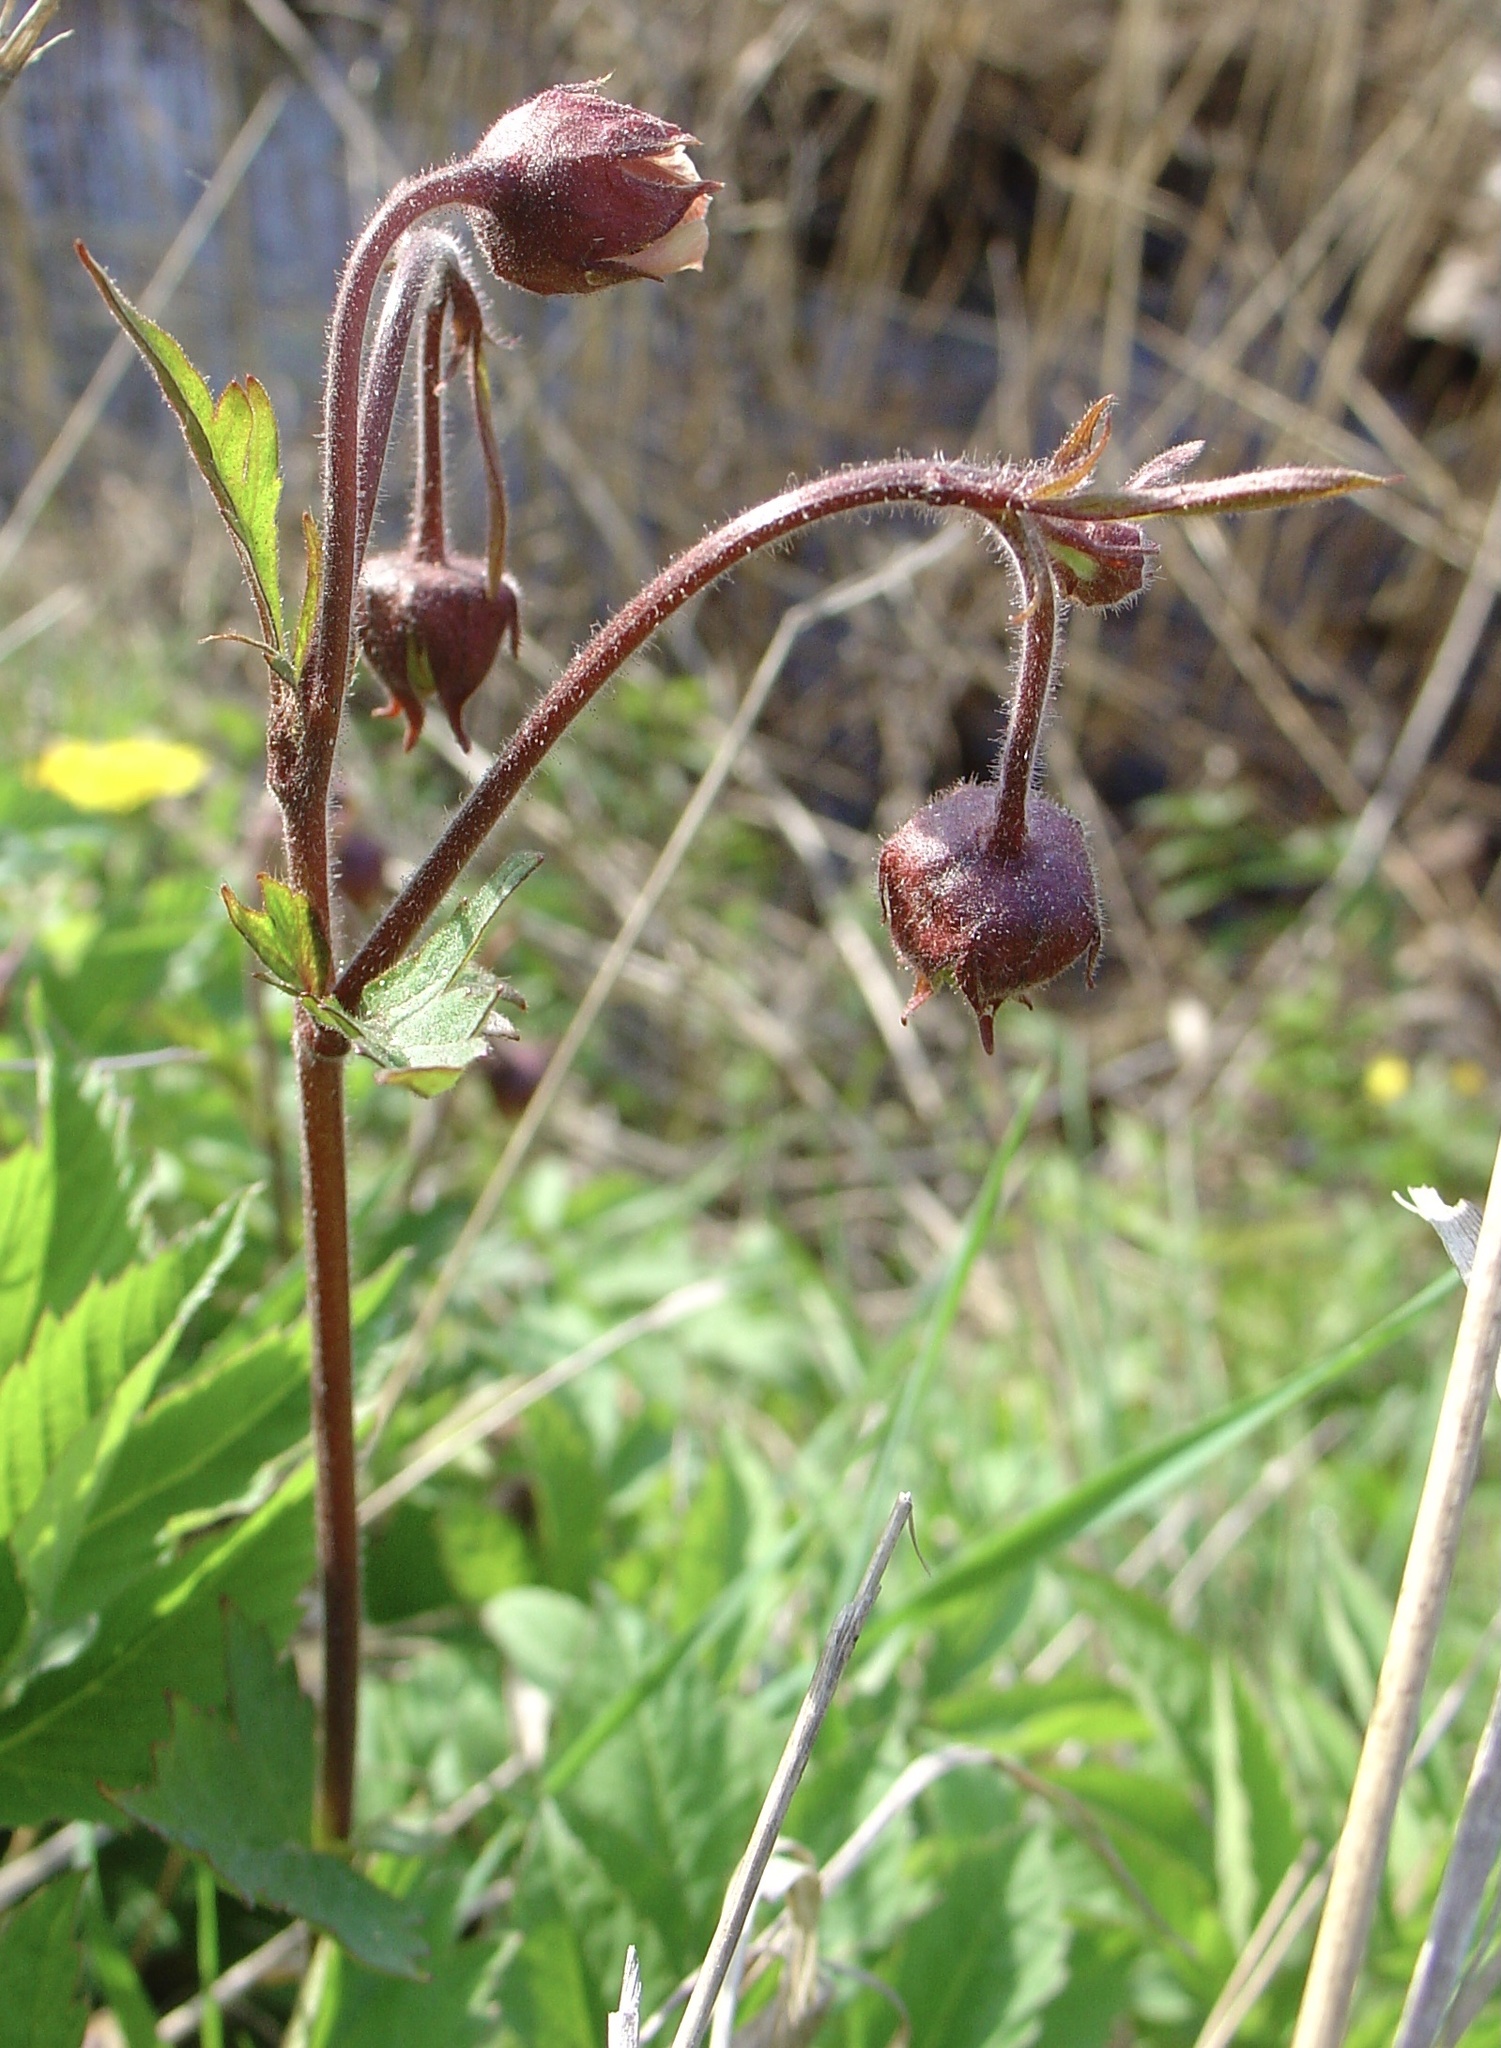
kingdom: Plantae
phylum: Tracheophyta
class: Magnoliopsida
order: Rosales
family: Rosaceae
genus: Geum
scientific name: Geum rivale
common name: Water avens
